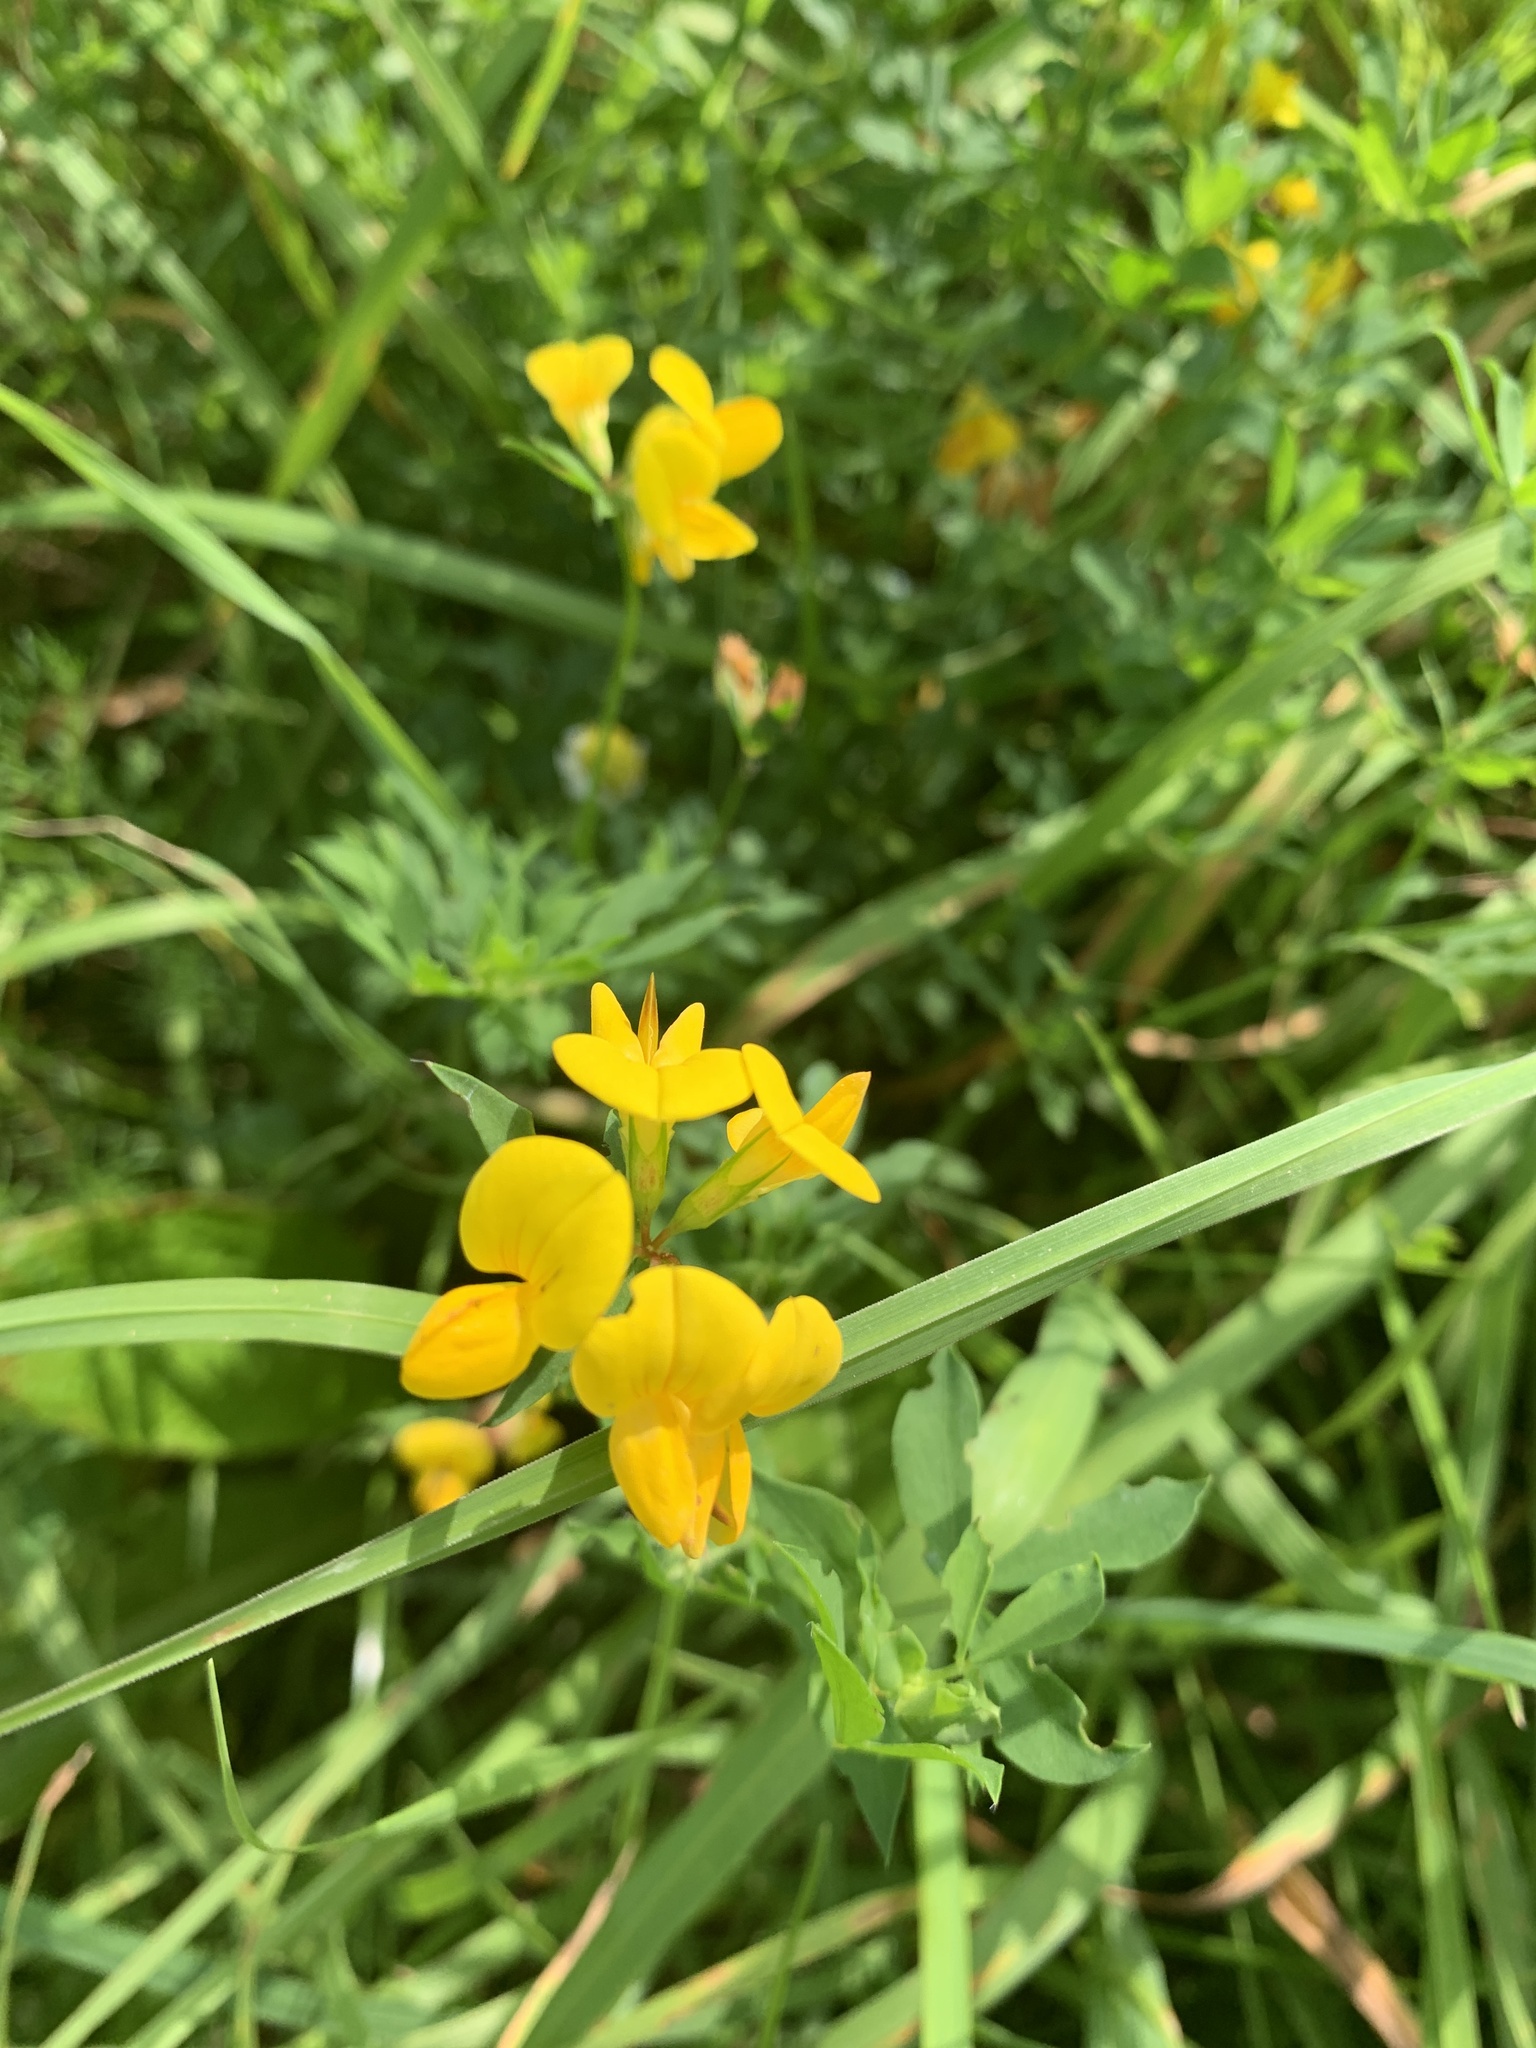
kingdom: Plantae
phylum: Tracheophyta
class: Magnoliopsida
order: Fabales
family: Fabaceae
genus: Lotus
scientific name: Lotus corniculatus
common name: Common bird's-foot-trefoil
